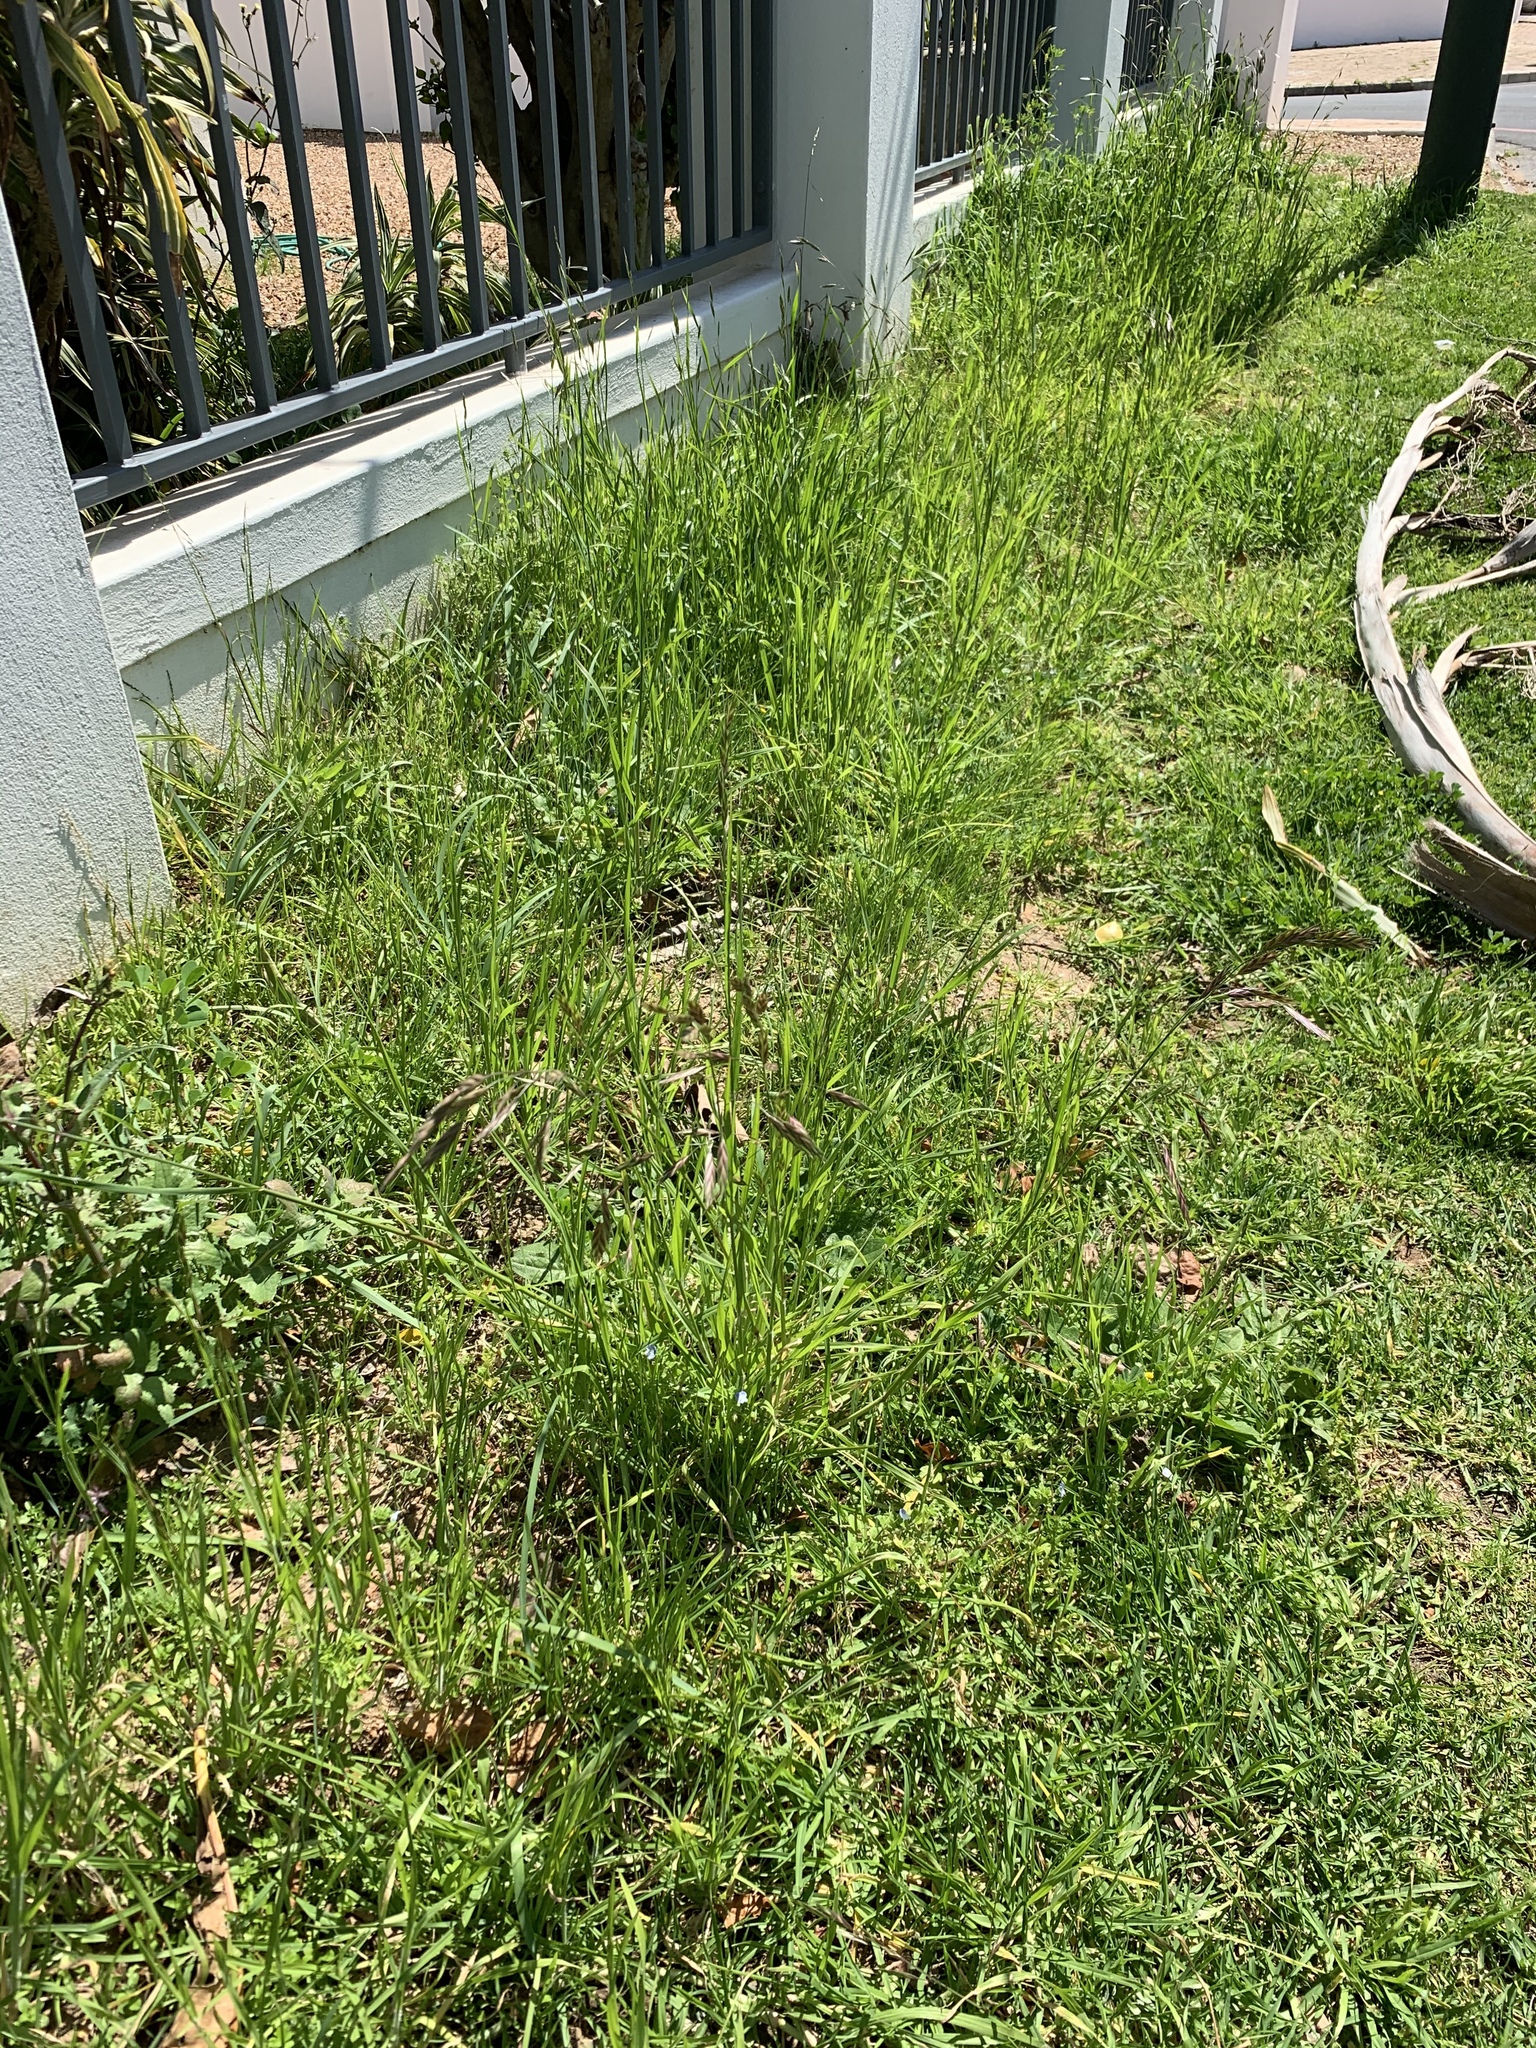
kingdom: Plantae
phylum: Tracheophyta
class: Liliopsida
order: Poales
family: Poaceae
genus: Bromus
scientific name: Bromus catharticus
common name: Rescuegrass
